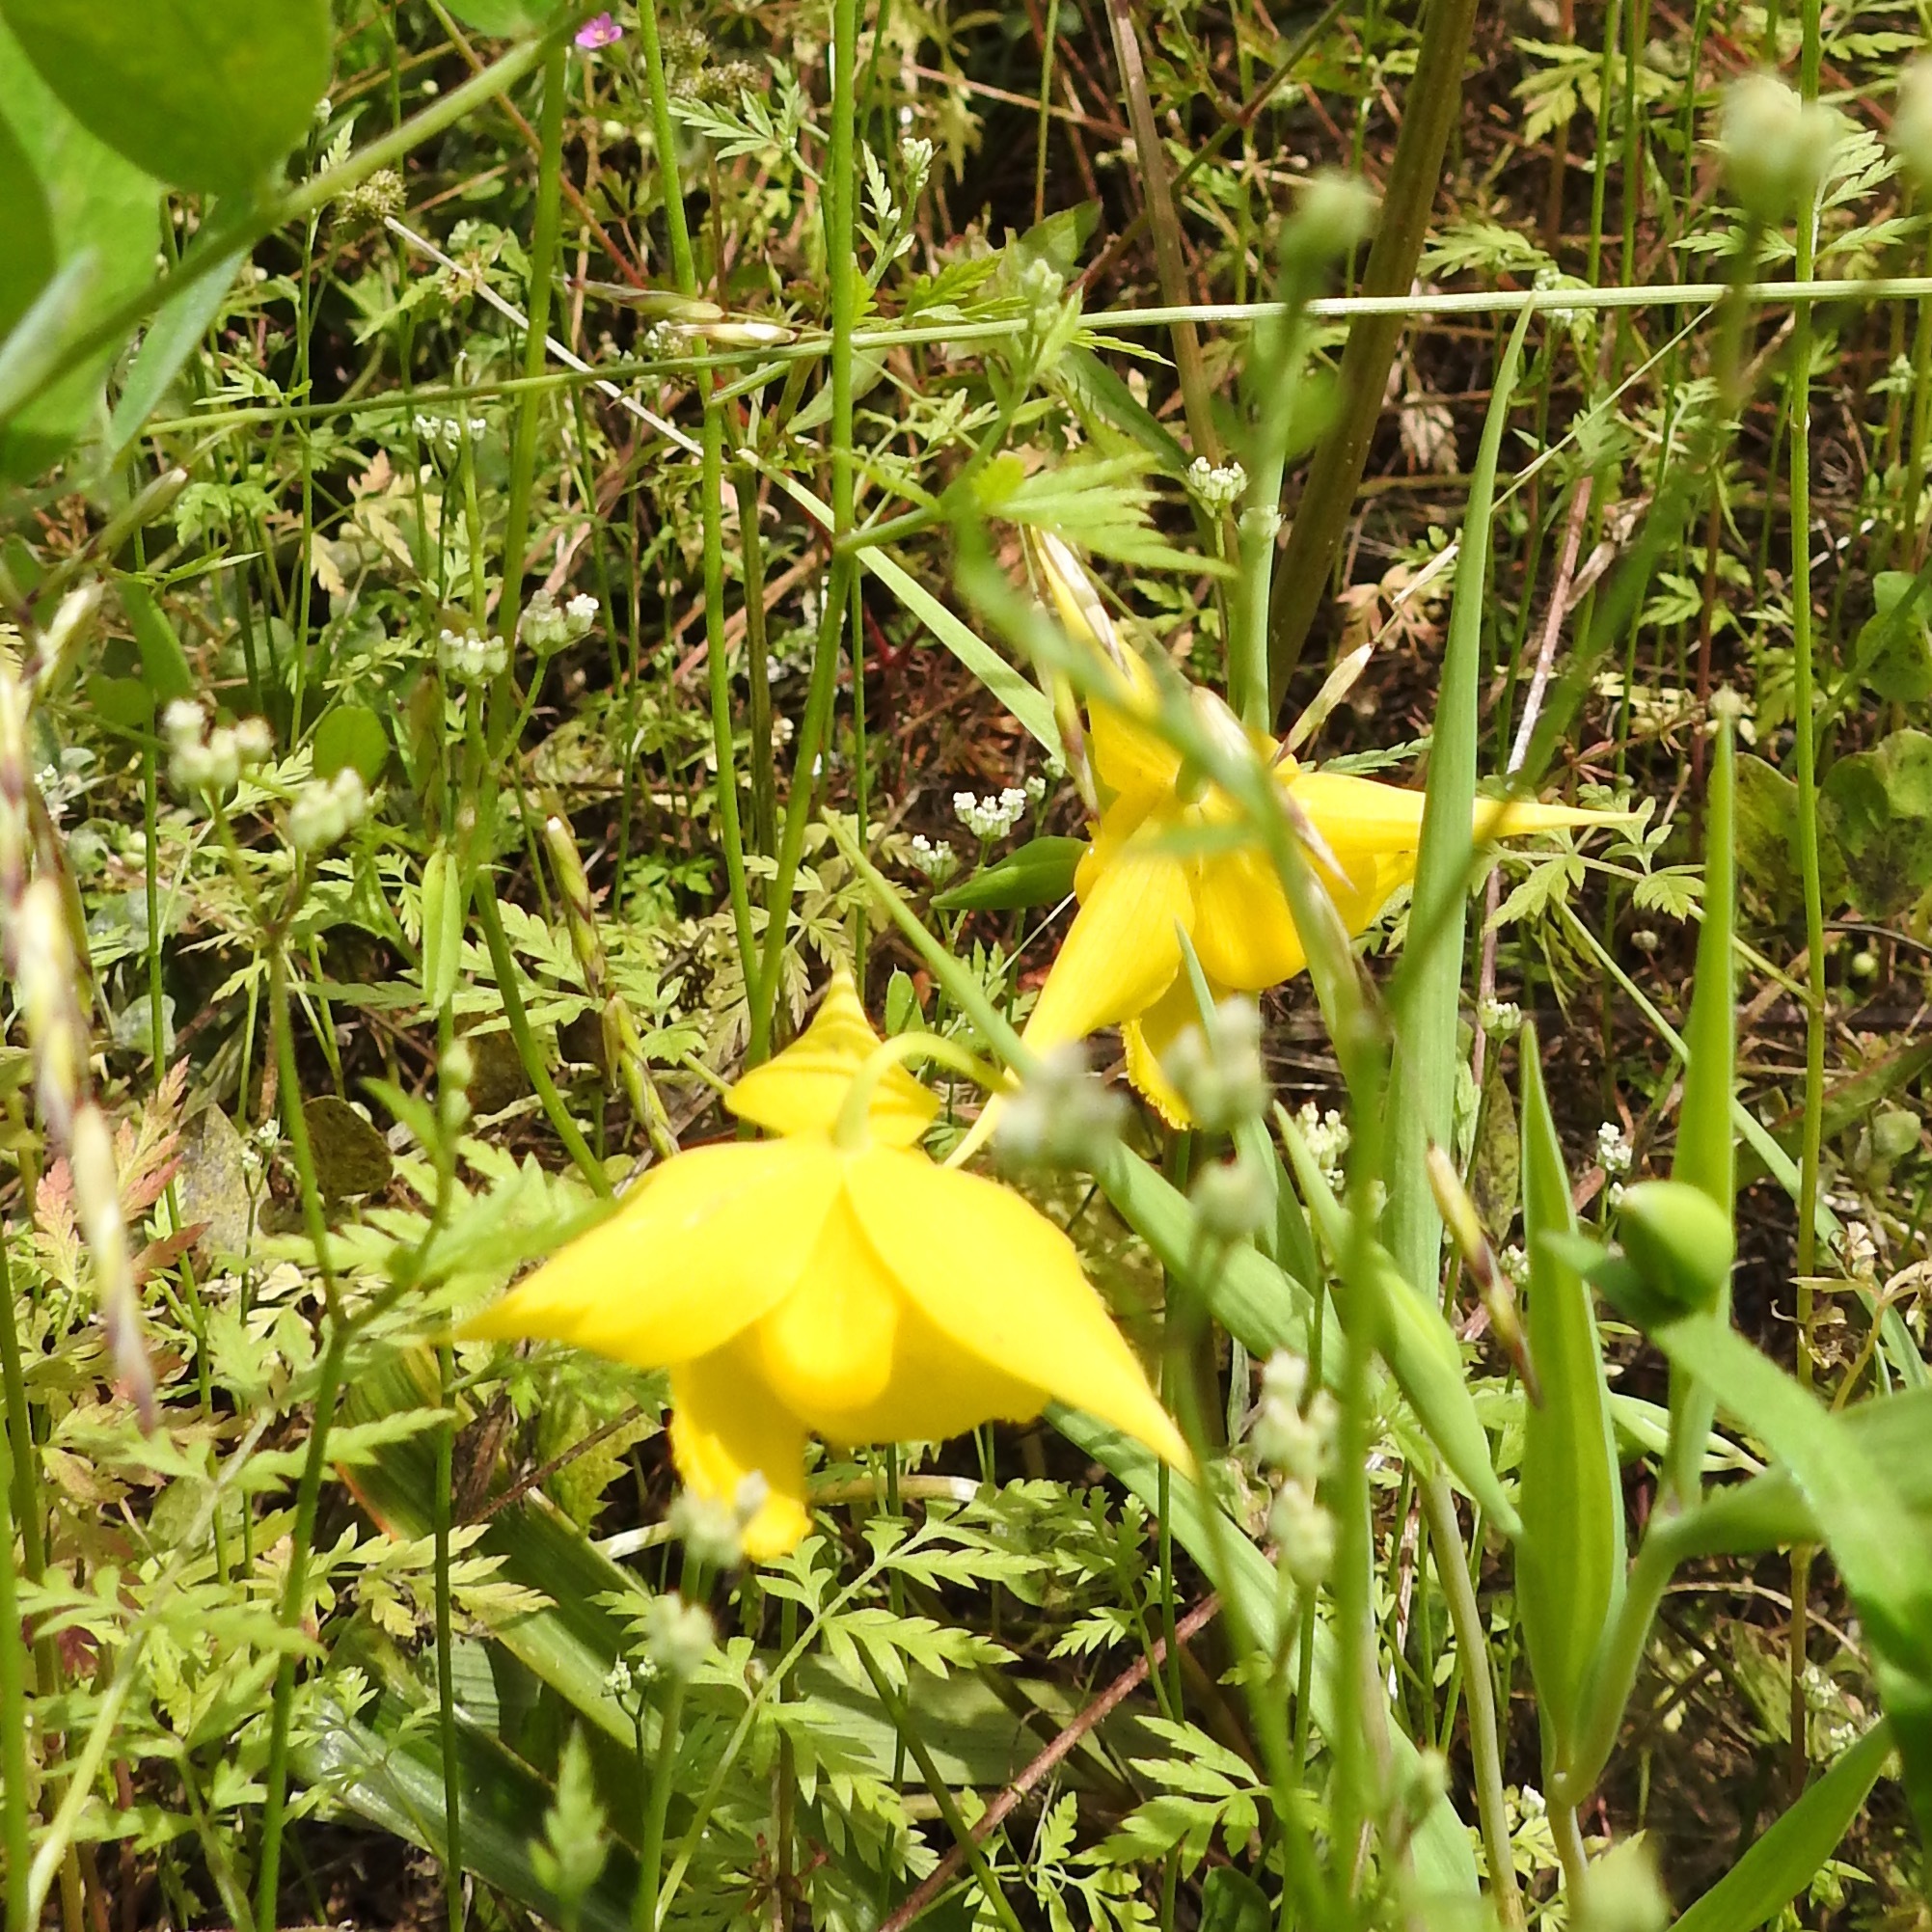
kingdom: Plantae
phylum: Tracheophyta
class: Liliopsida
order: Liliales
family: Liliaceae
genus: Calochortus
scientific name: Calochortus amabilis
